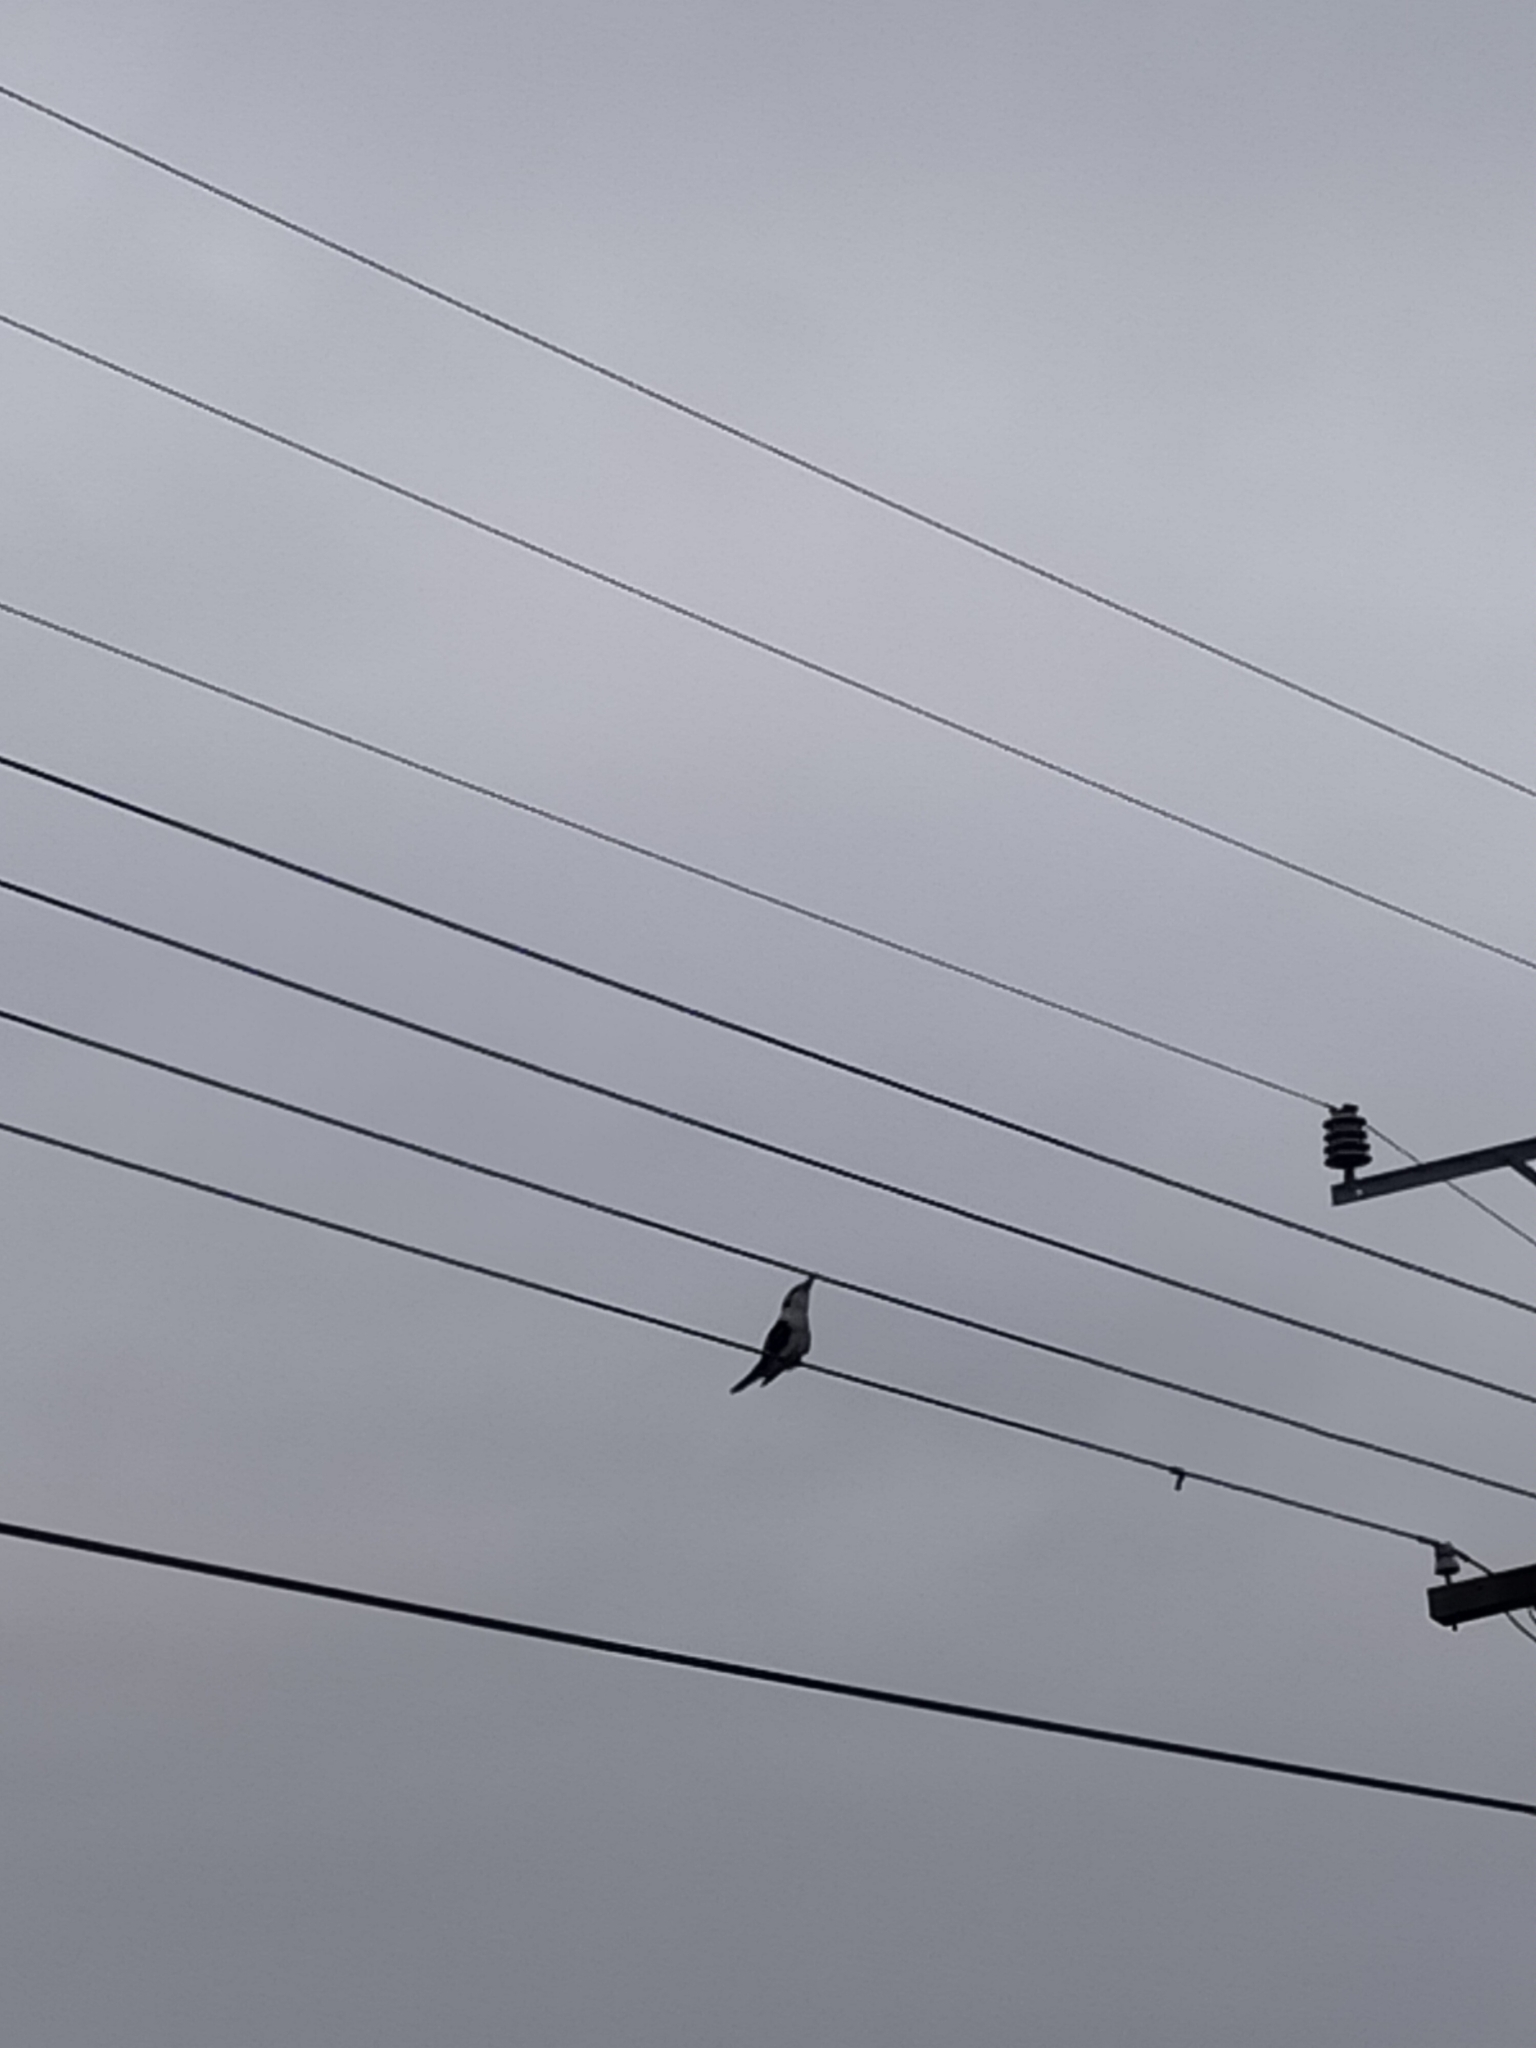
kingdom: Animalia
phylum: Chordata
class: Aves
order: Coraciiformes
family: Alcedinidae
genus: Dacelo
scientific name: Dacelo novaeguineae
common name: Laughing kookaburra
